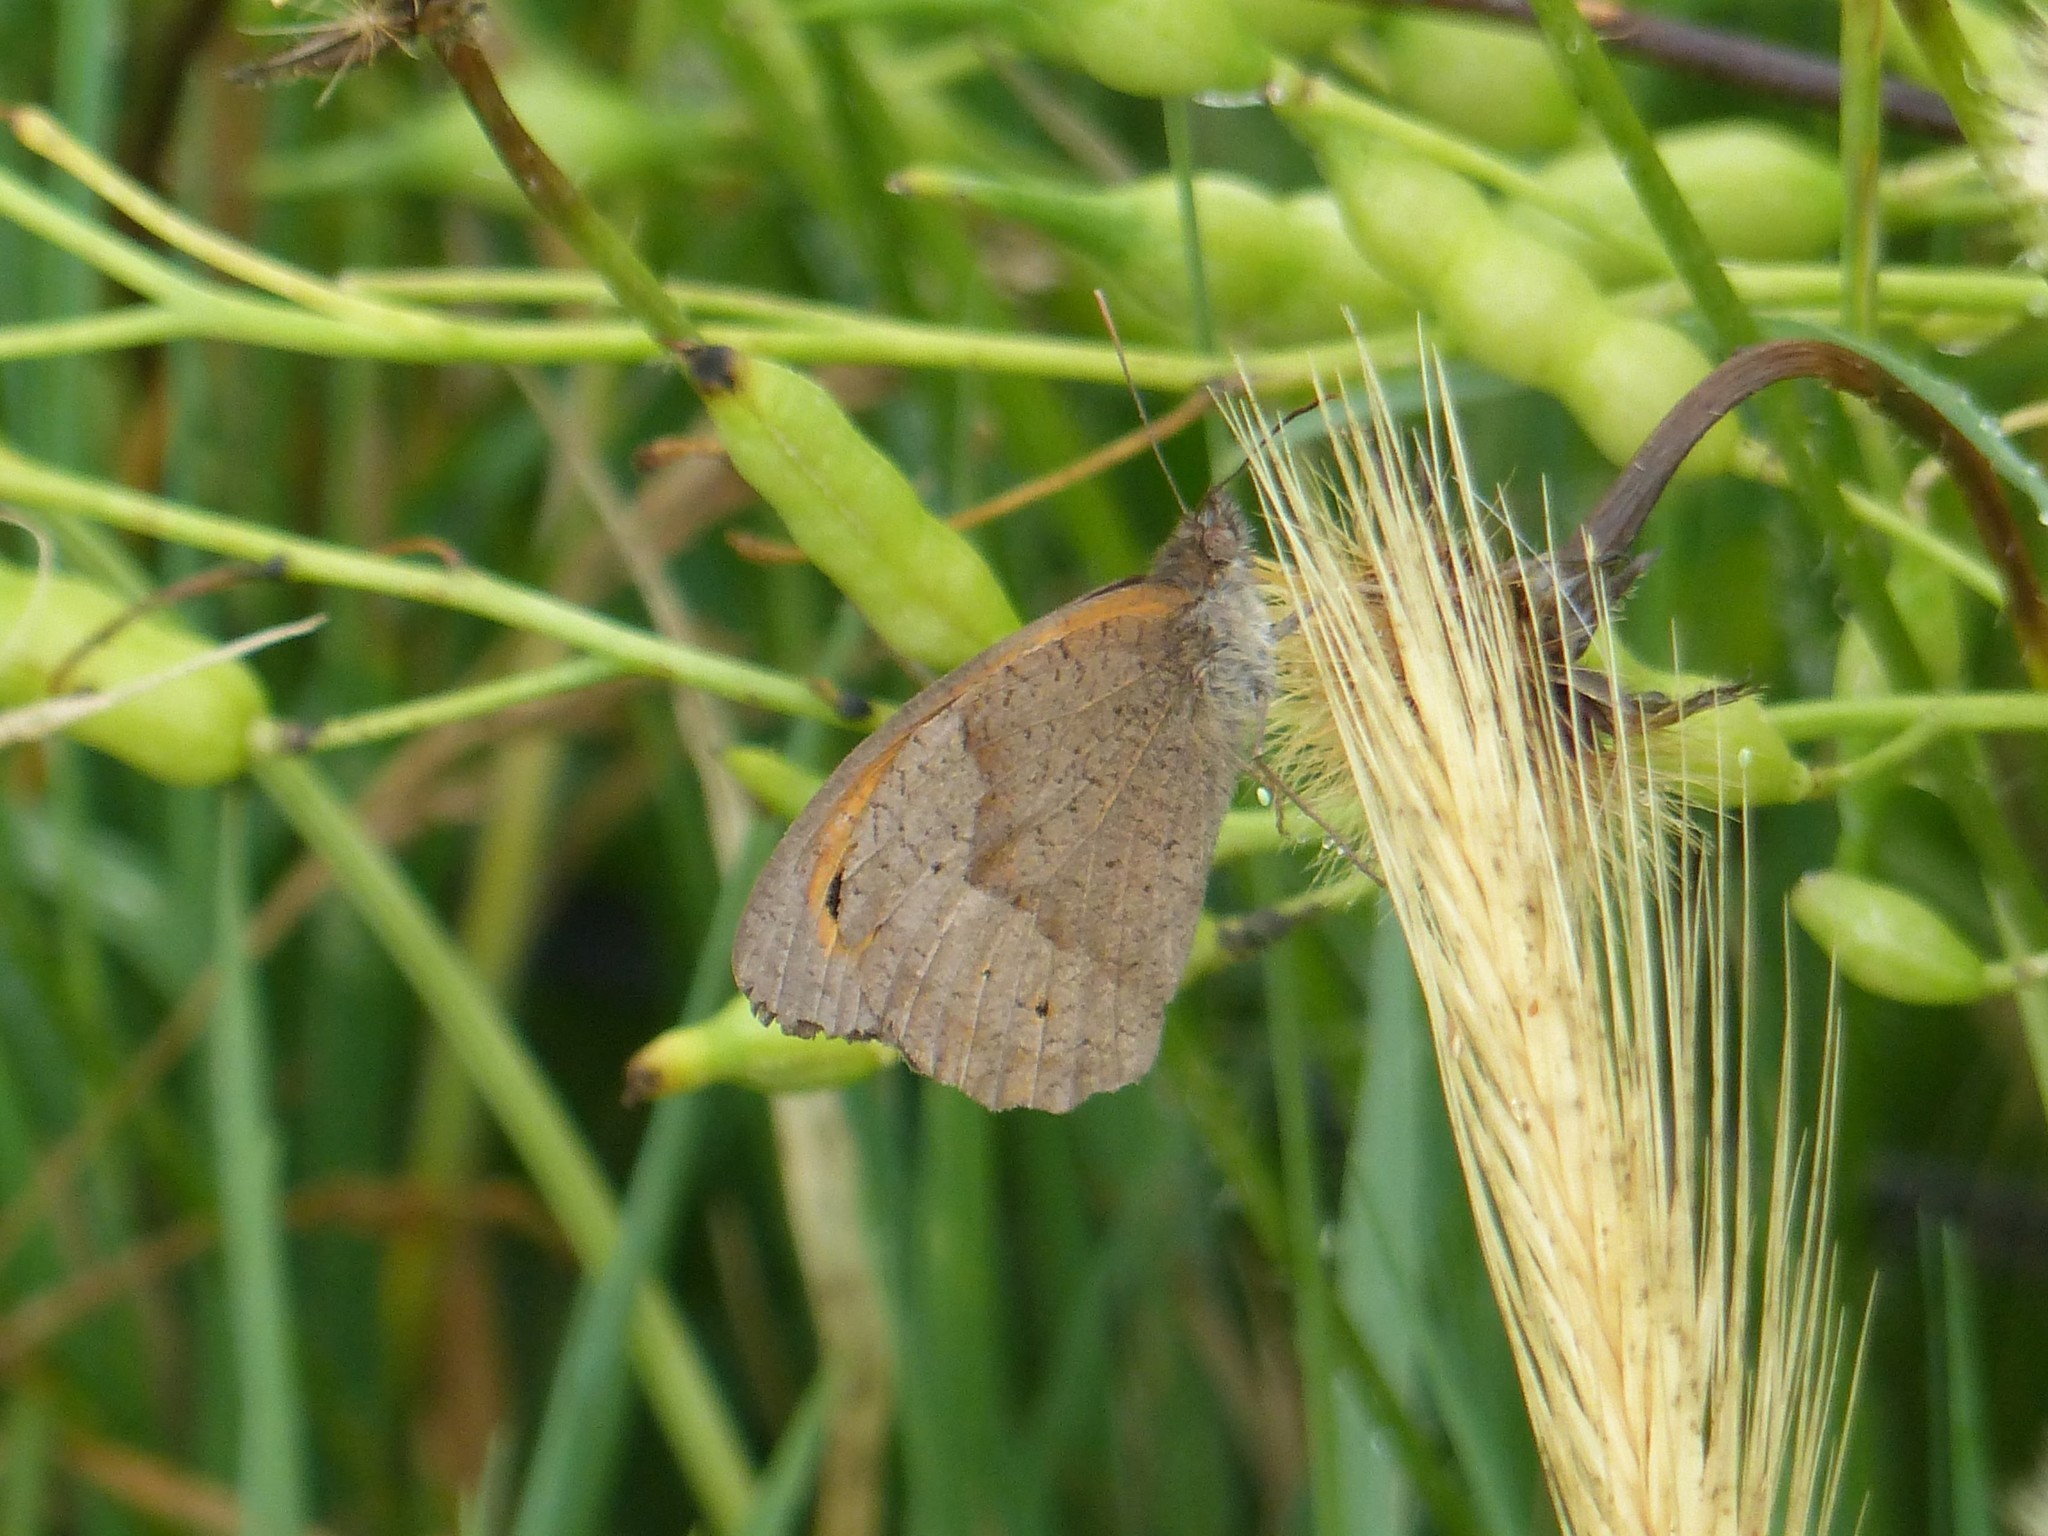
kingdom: Animalia
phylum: Arthropoda
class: Insecta
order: Lepidoptera
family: Nymphalidae
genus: Maniola
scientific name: Maniola jurtina
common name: Meadow brown
